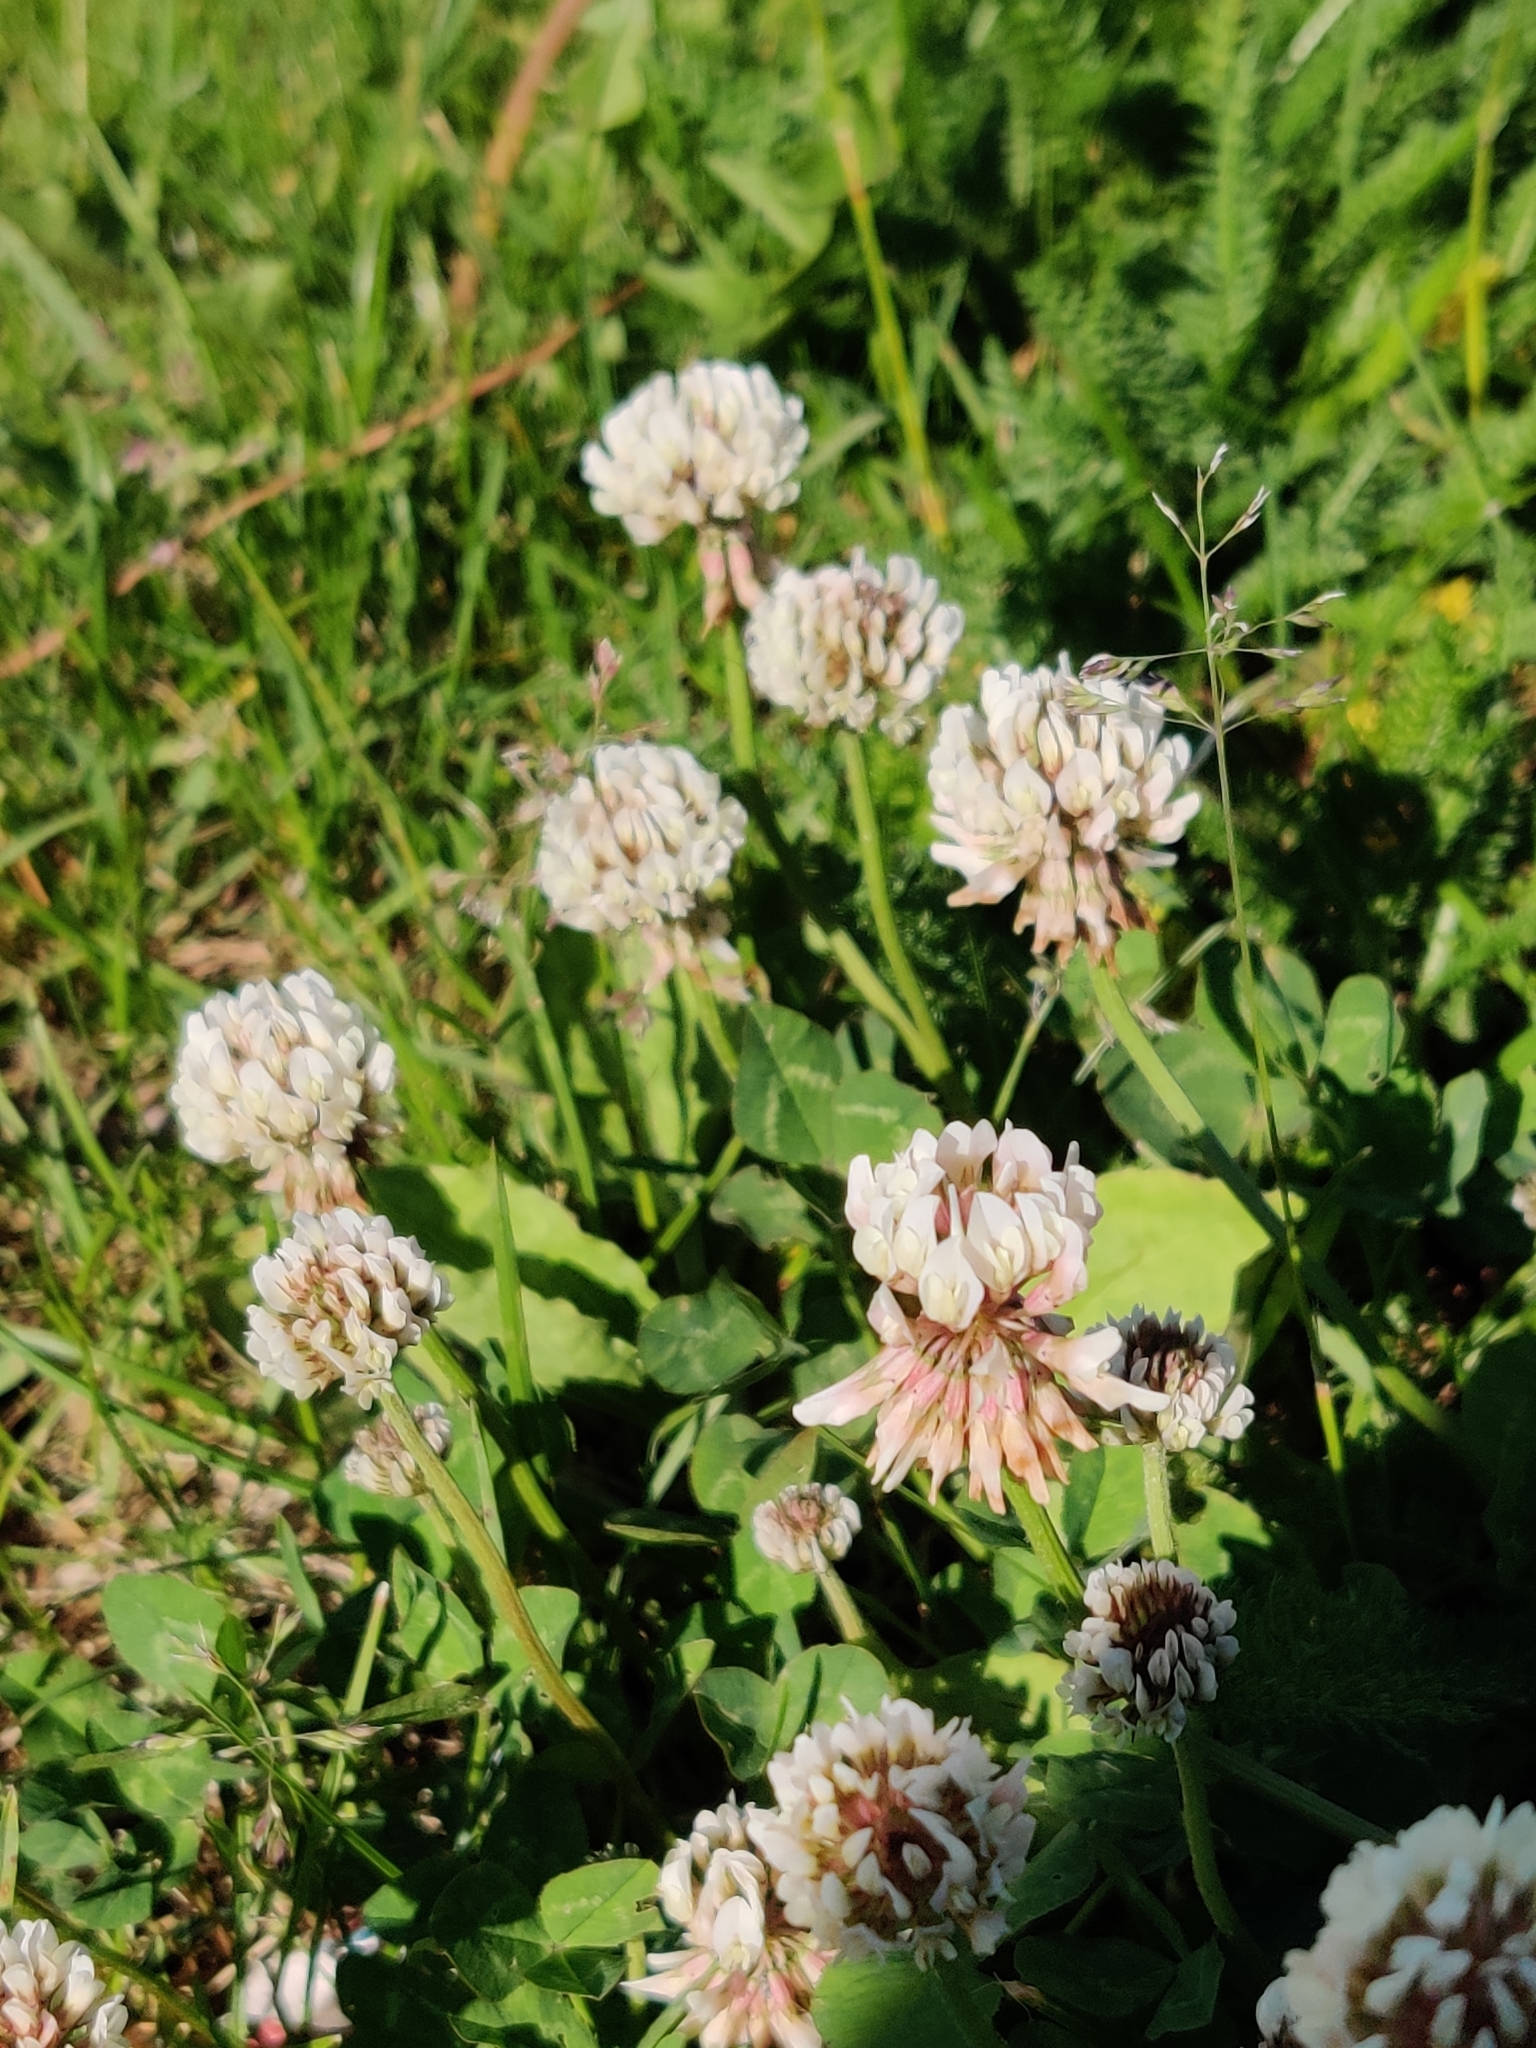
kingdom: Plantae
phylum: Tracheophyta
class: Magnoliopsida
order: Fabales
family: Fabaceae
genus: Trifolium
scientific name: Trifolium repens
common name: White clover
